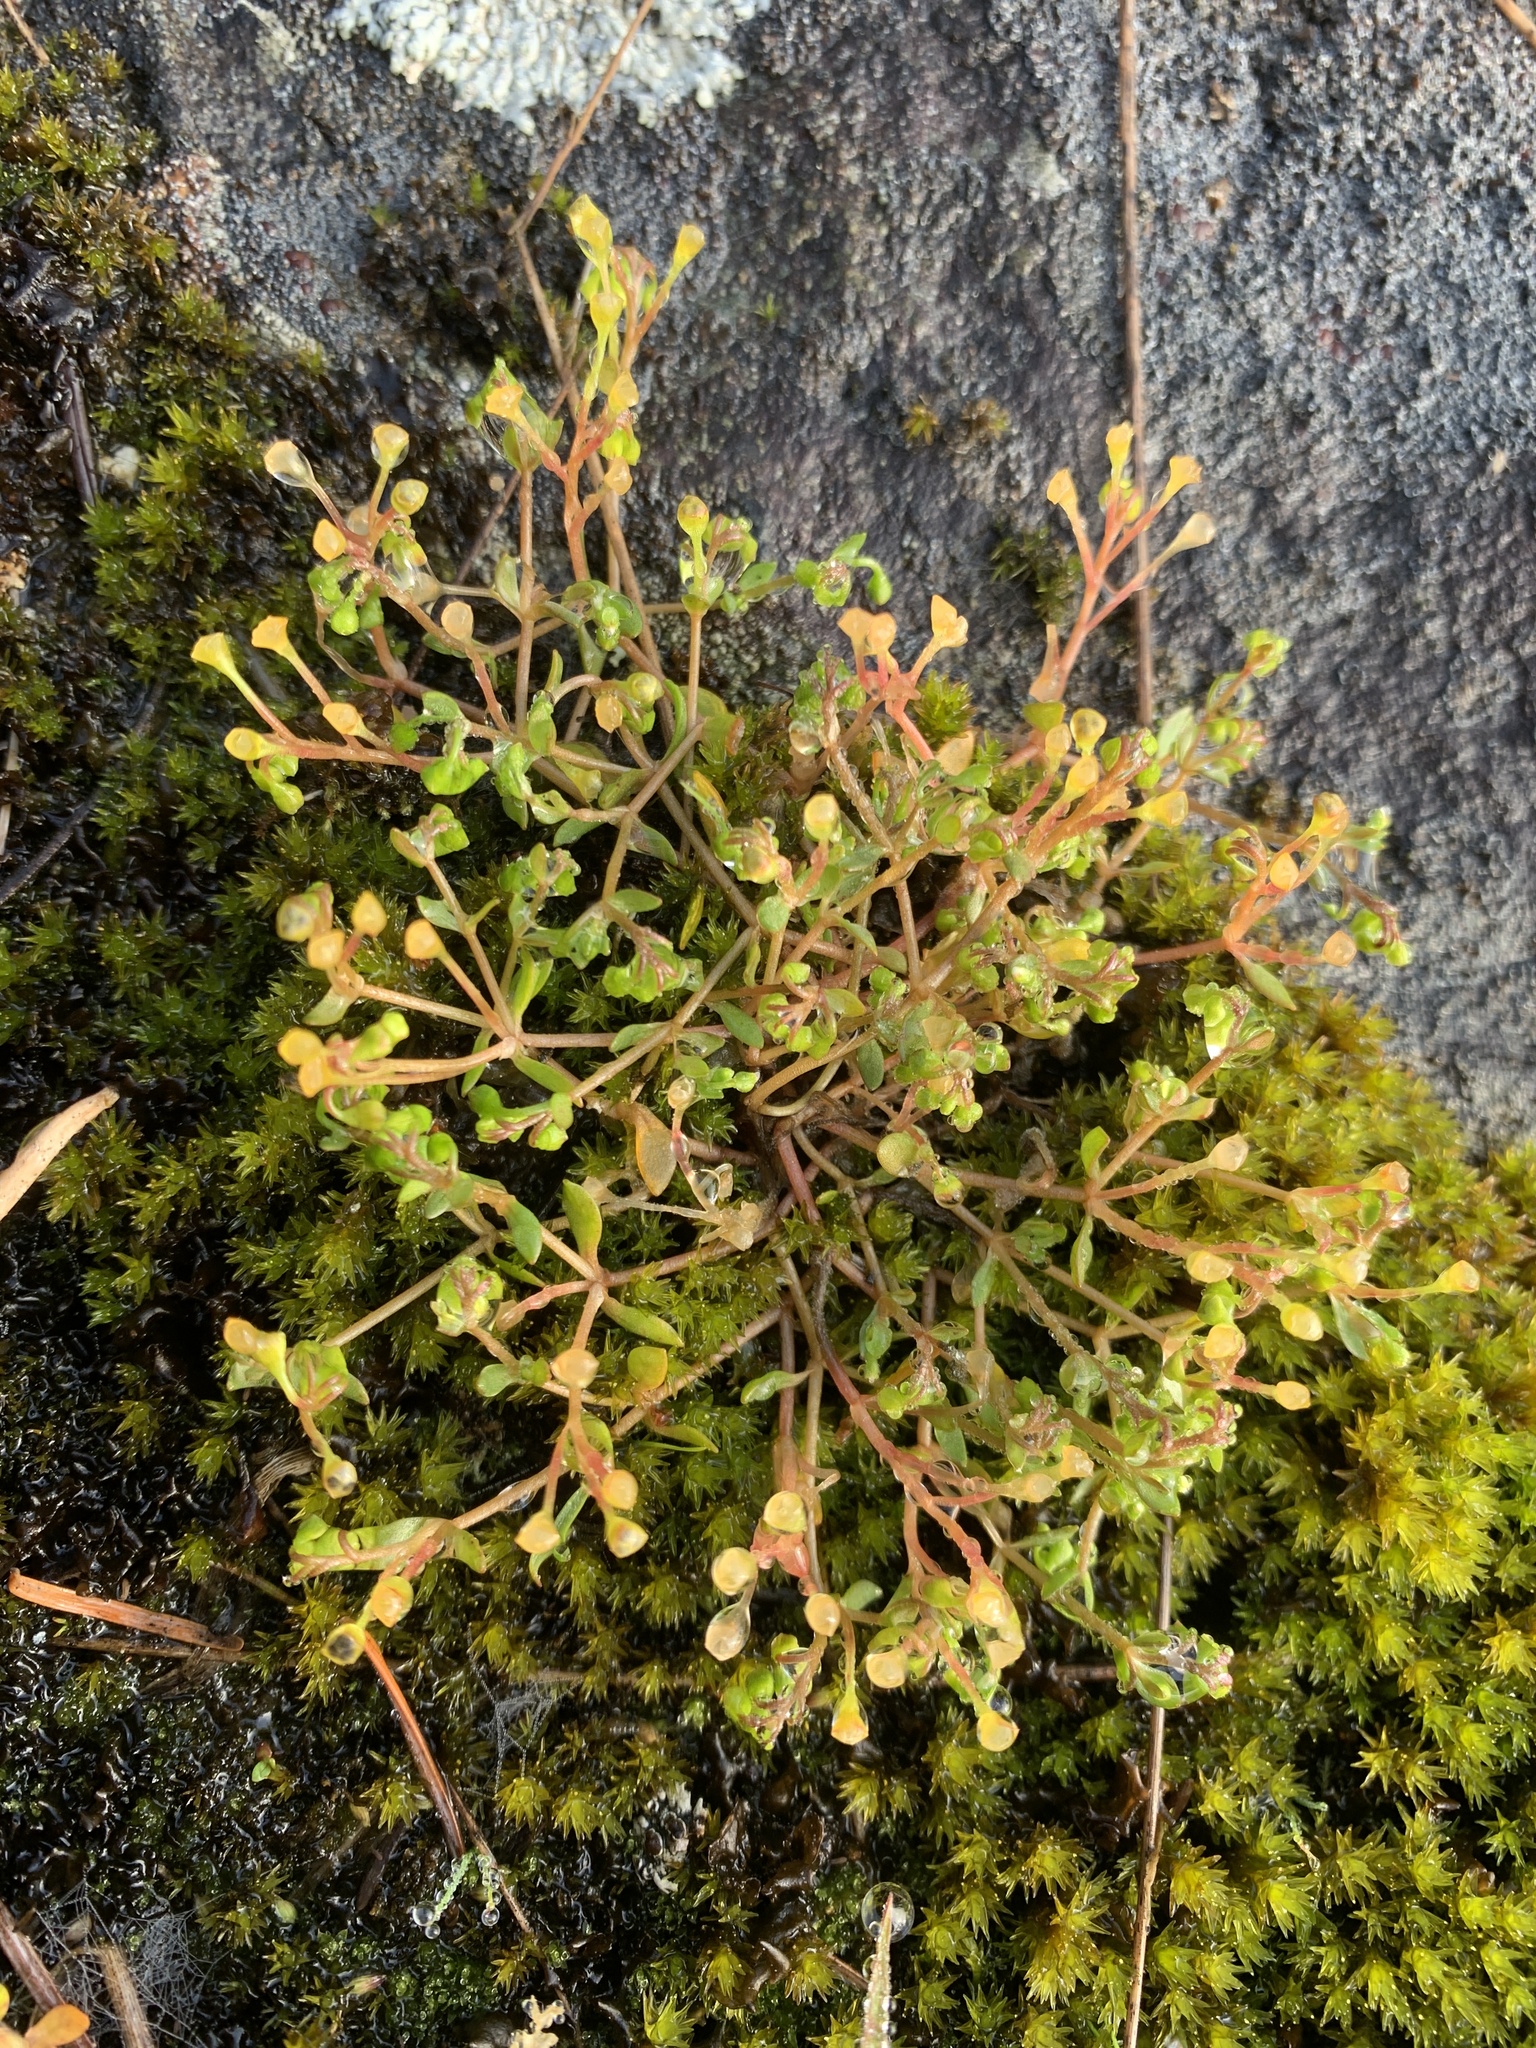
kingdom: Plantae
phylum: Tracheophyta
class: Magnoliopsida
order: Caryophyllales
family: Montiaceae
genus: Montia
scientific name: Montia fontana
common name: Blinks
